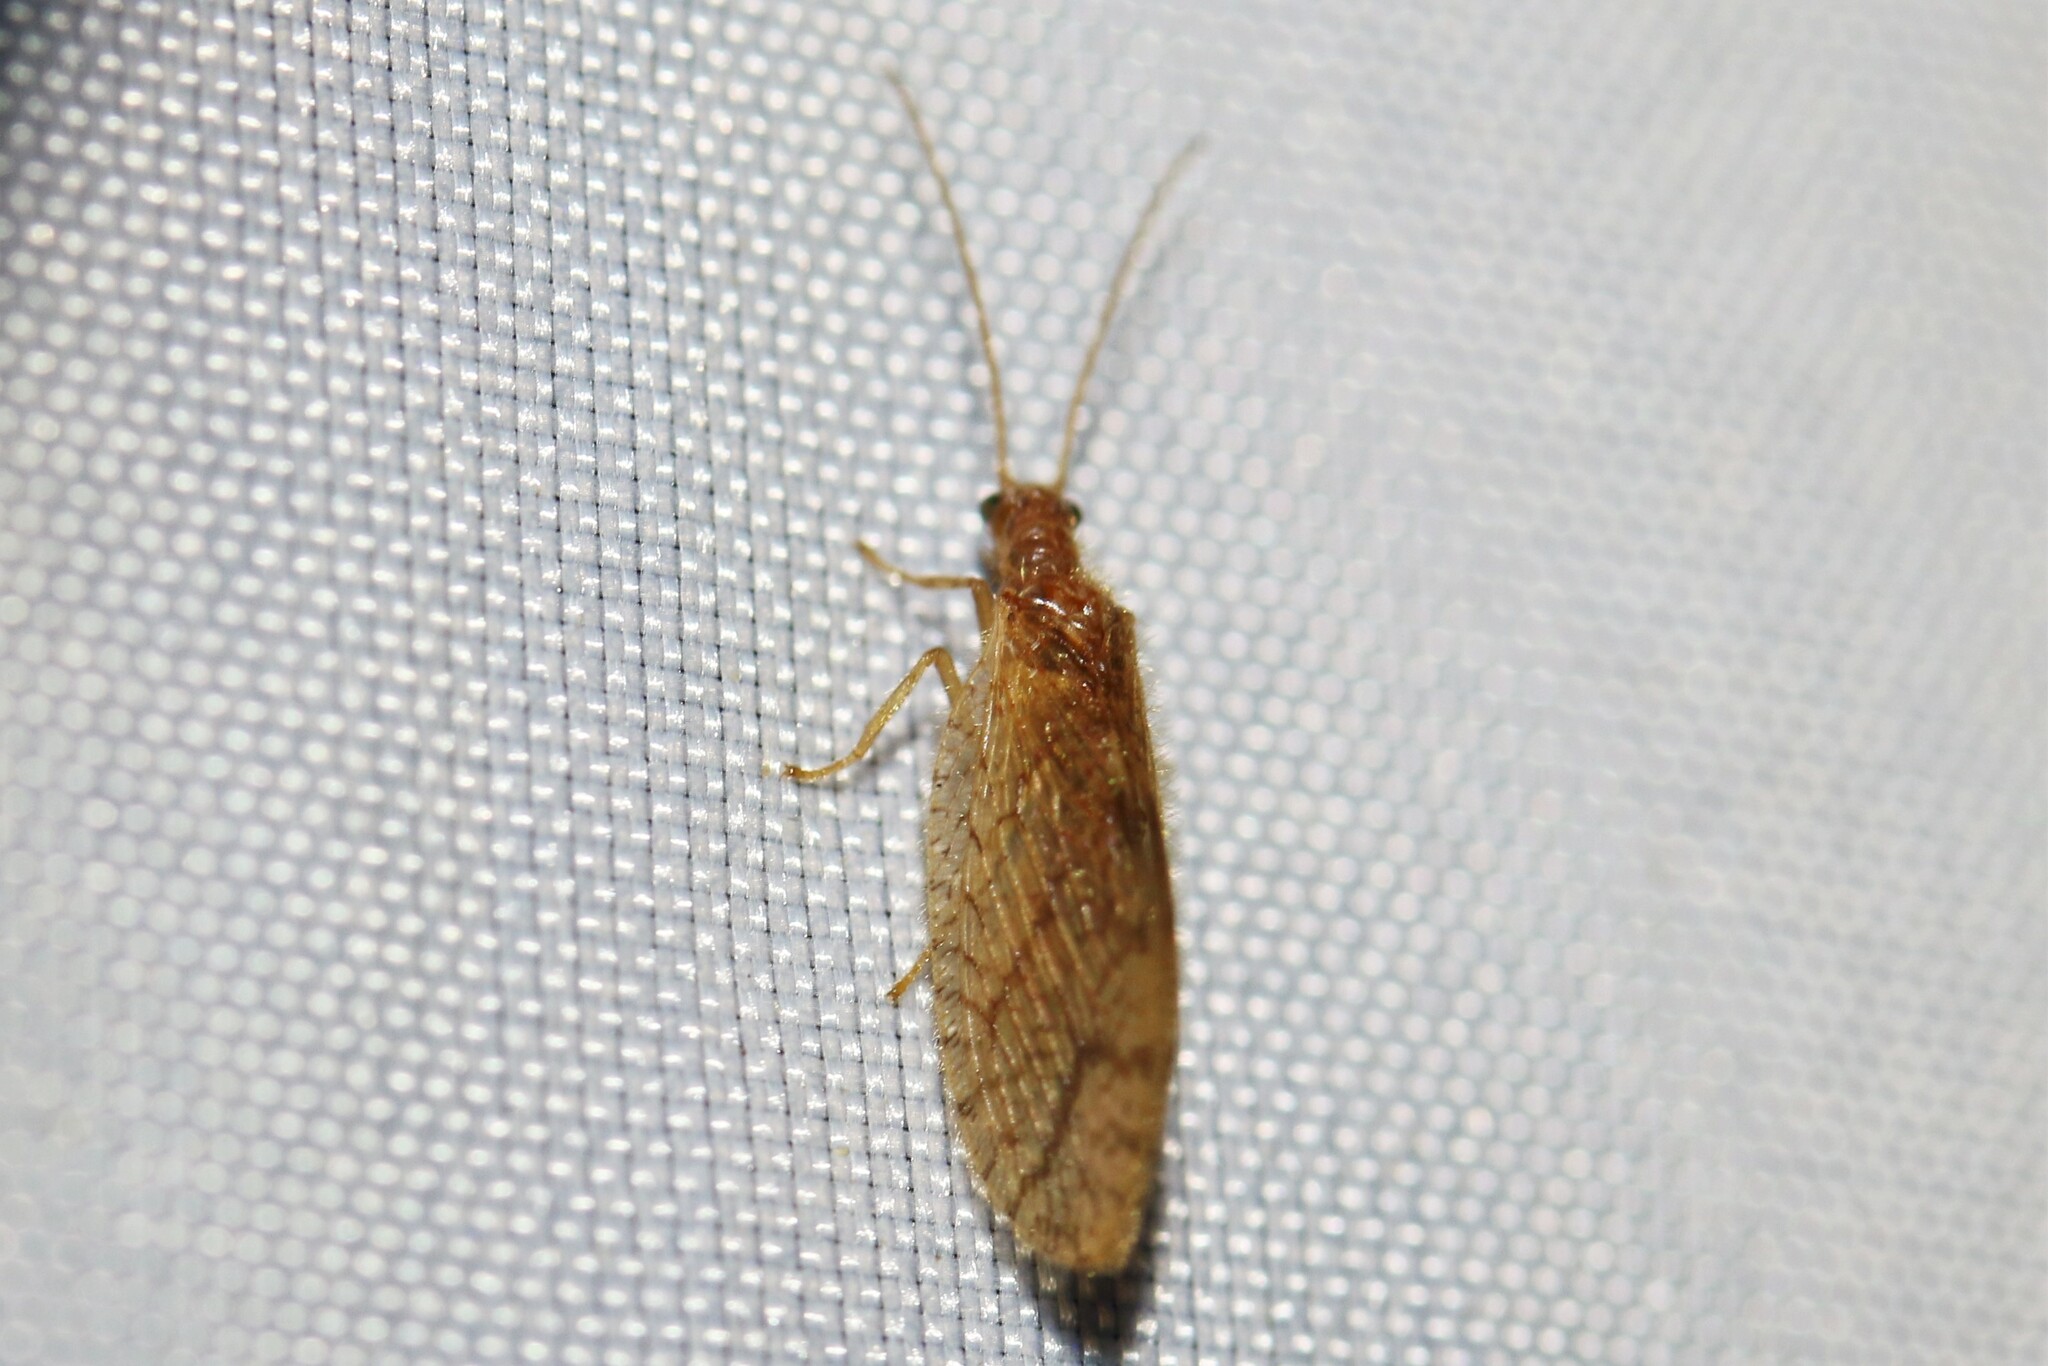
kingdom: Animalia
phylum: Arthropoda
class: Insecta
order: Neuroptera
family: Hemerobiidae
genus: Micromus
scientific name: Micromus angulatus
